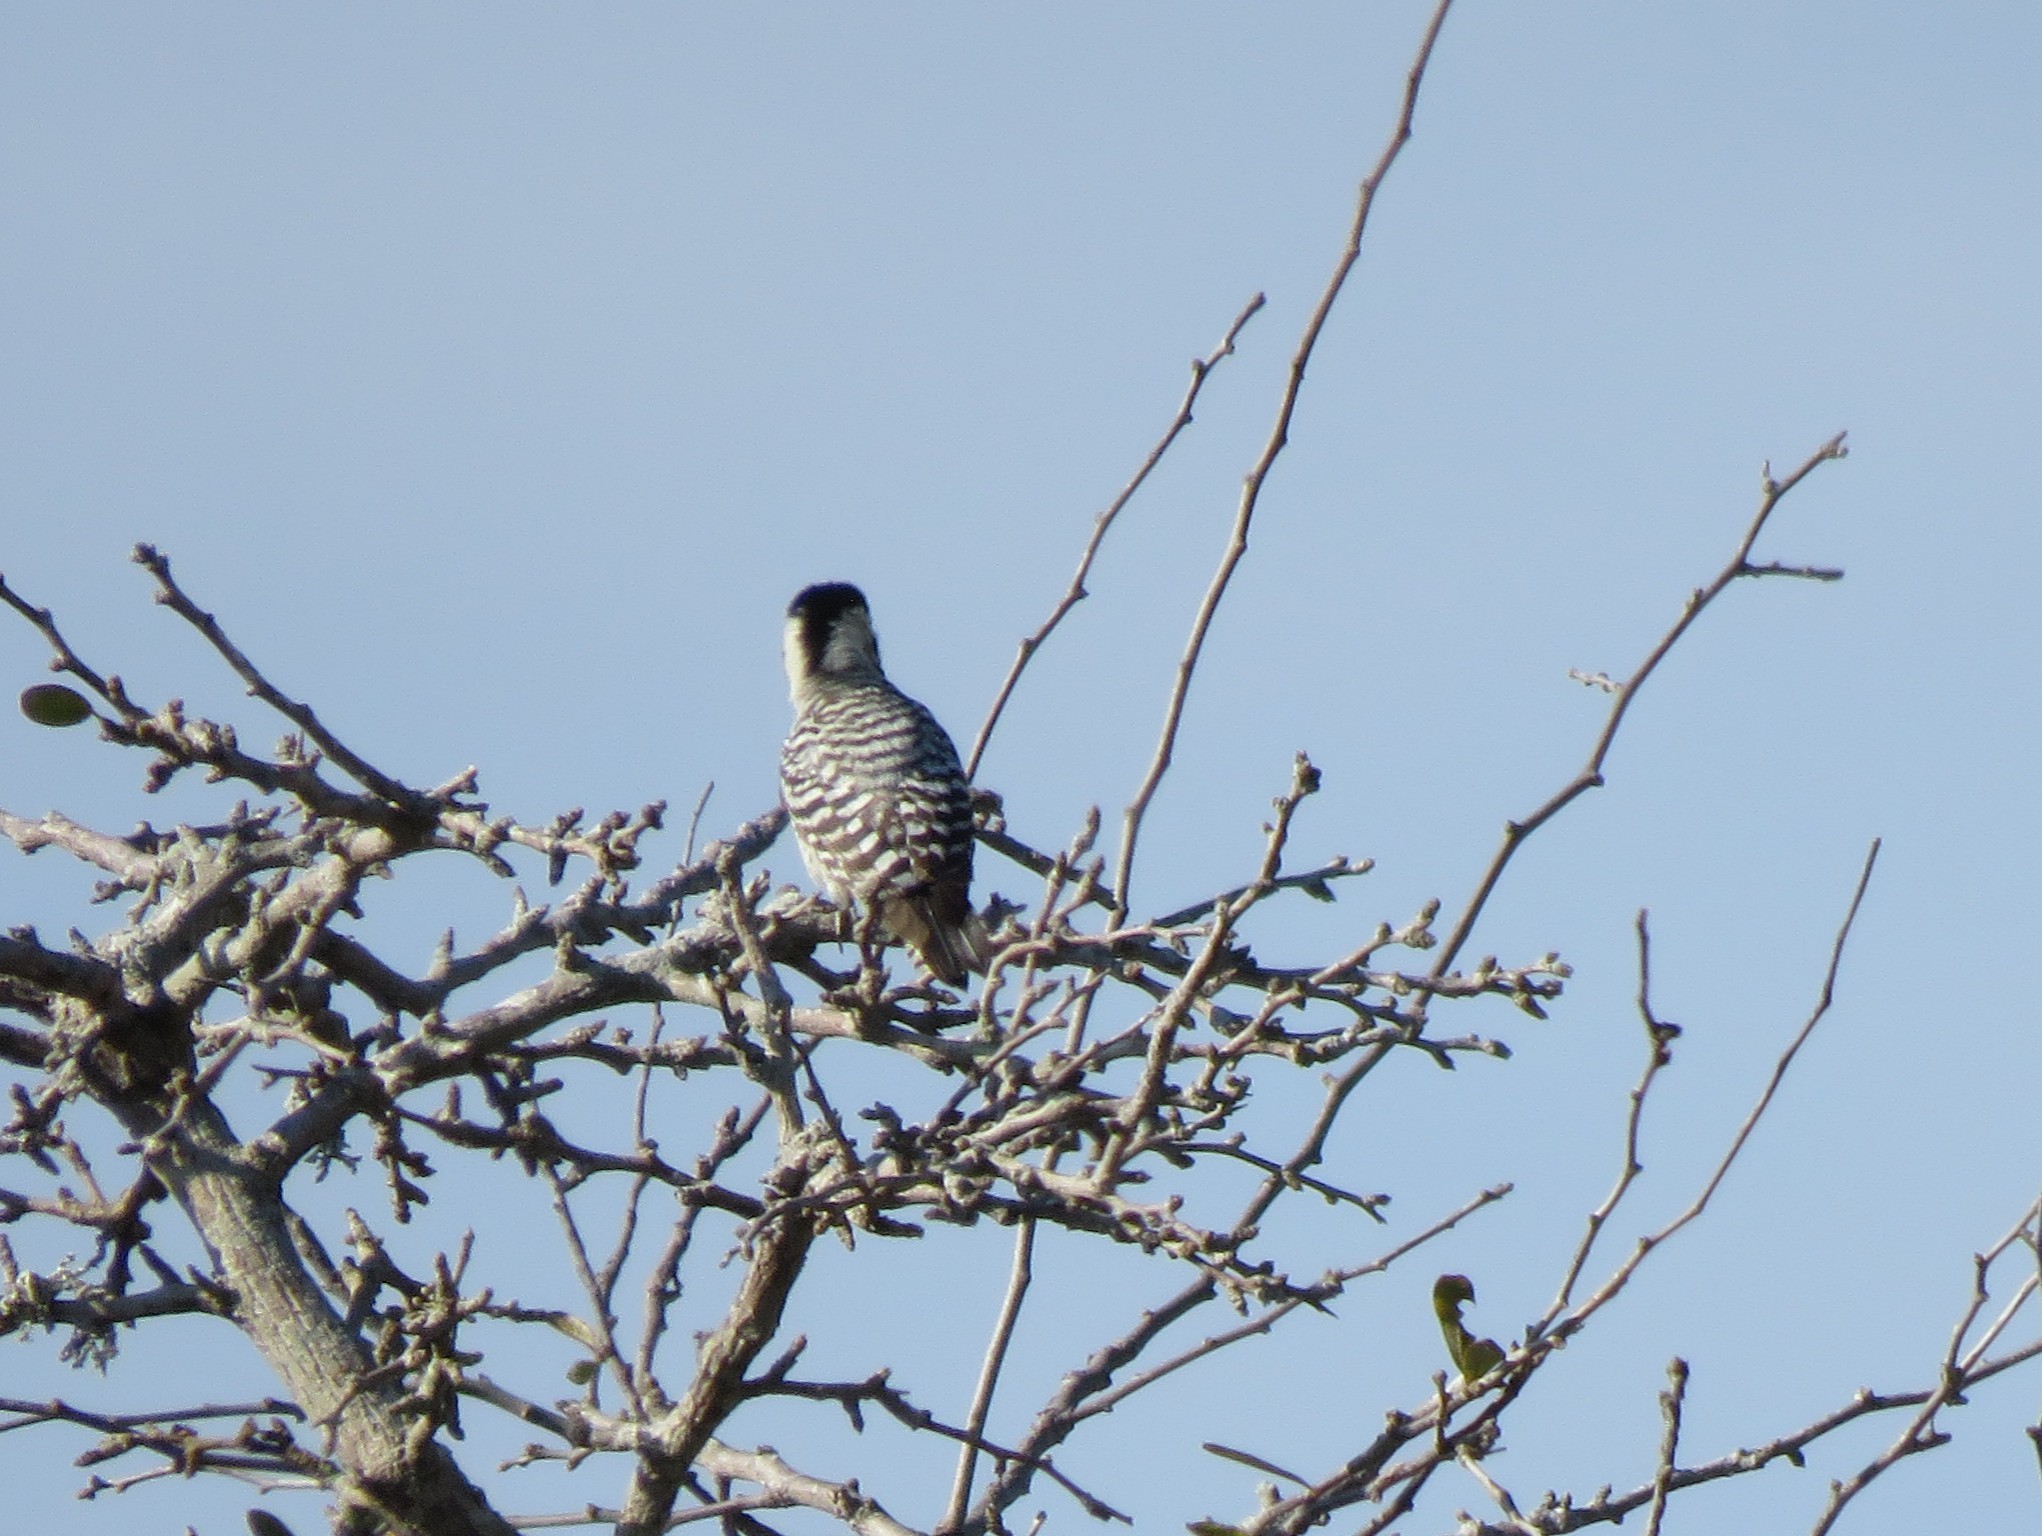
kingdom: Animalia
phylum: Chordata
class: Aves
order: Piciformes
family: Picidae
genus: Dryobates
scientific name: Dryobates scalaris
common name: Ladder-backed woodpecker
